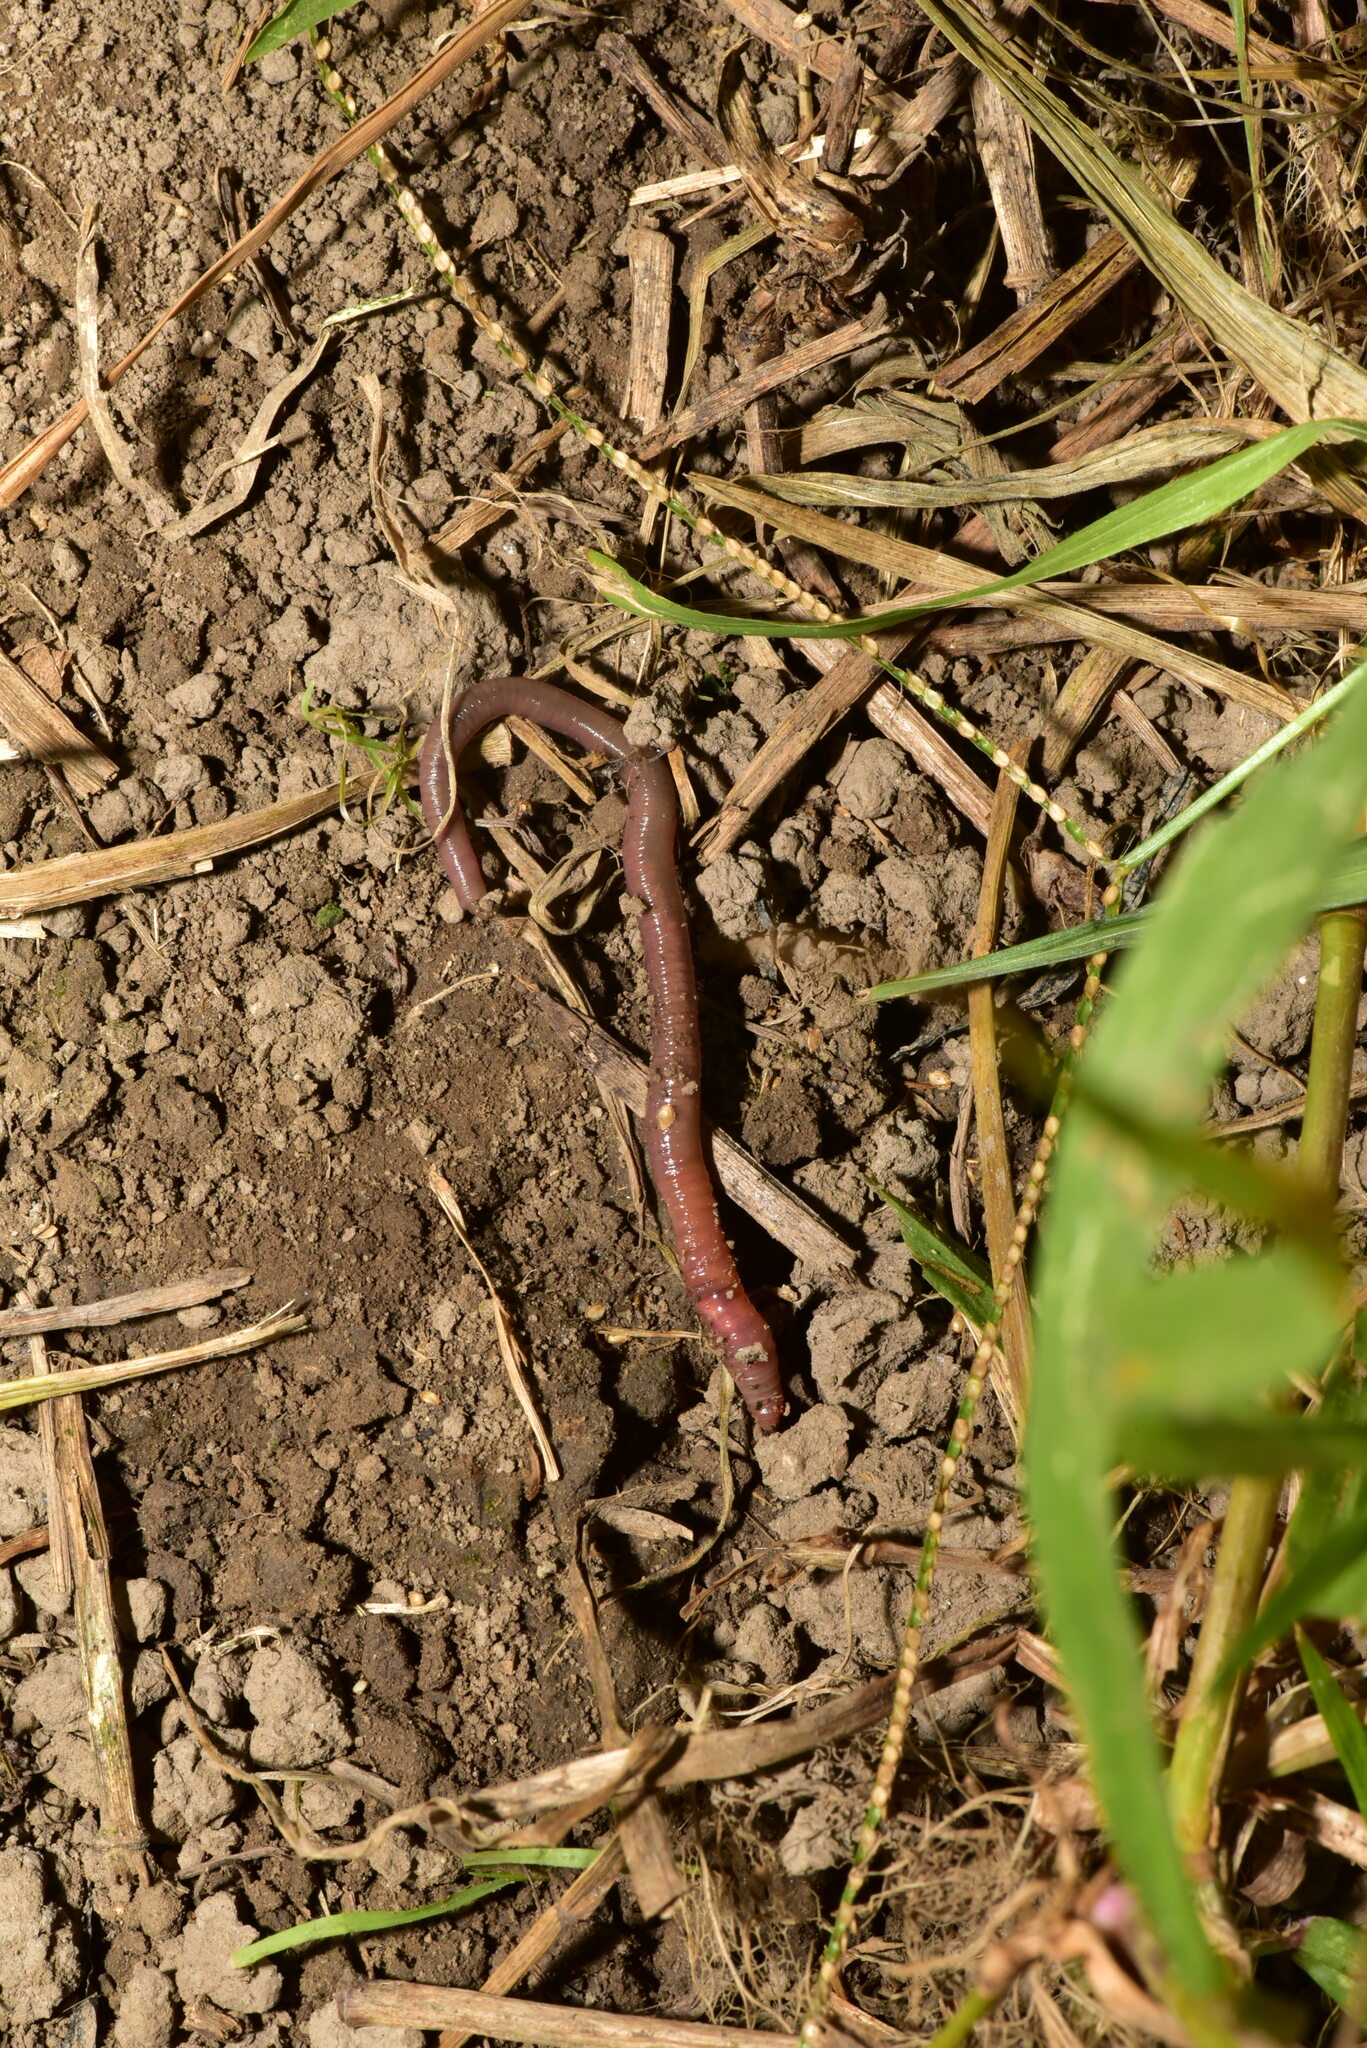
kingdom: Animalia
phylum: Annelida
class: Clitellata
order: Crassiclitellata
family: Rhinodrilidae
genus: Pontoscolex
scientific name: Pontoscolex corethrurus
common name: Earthworm
